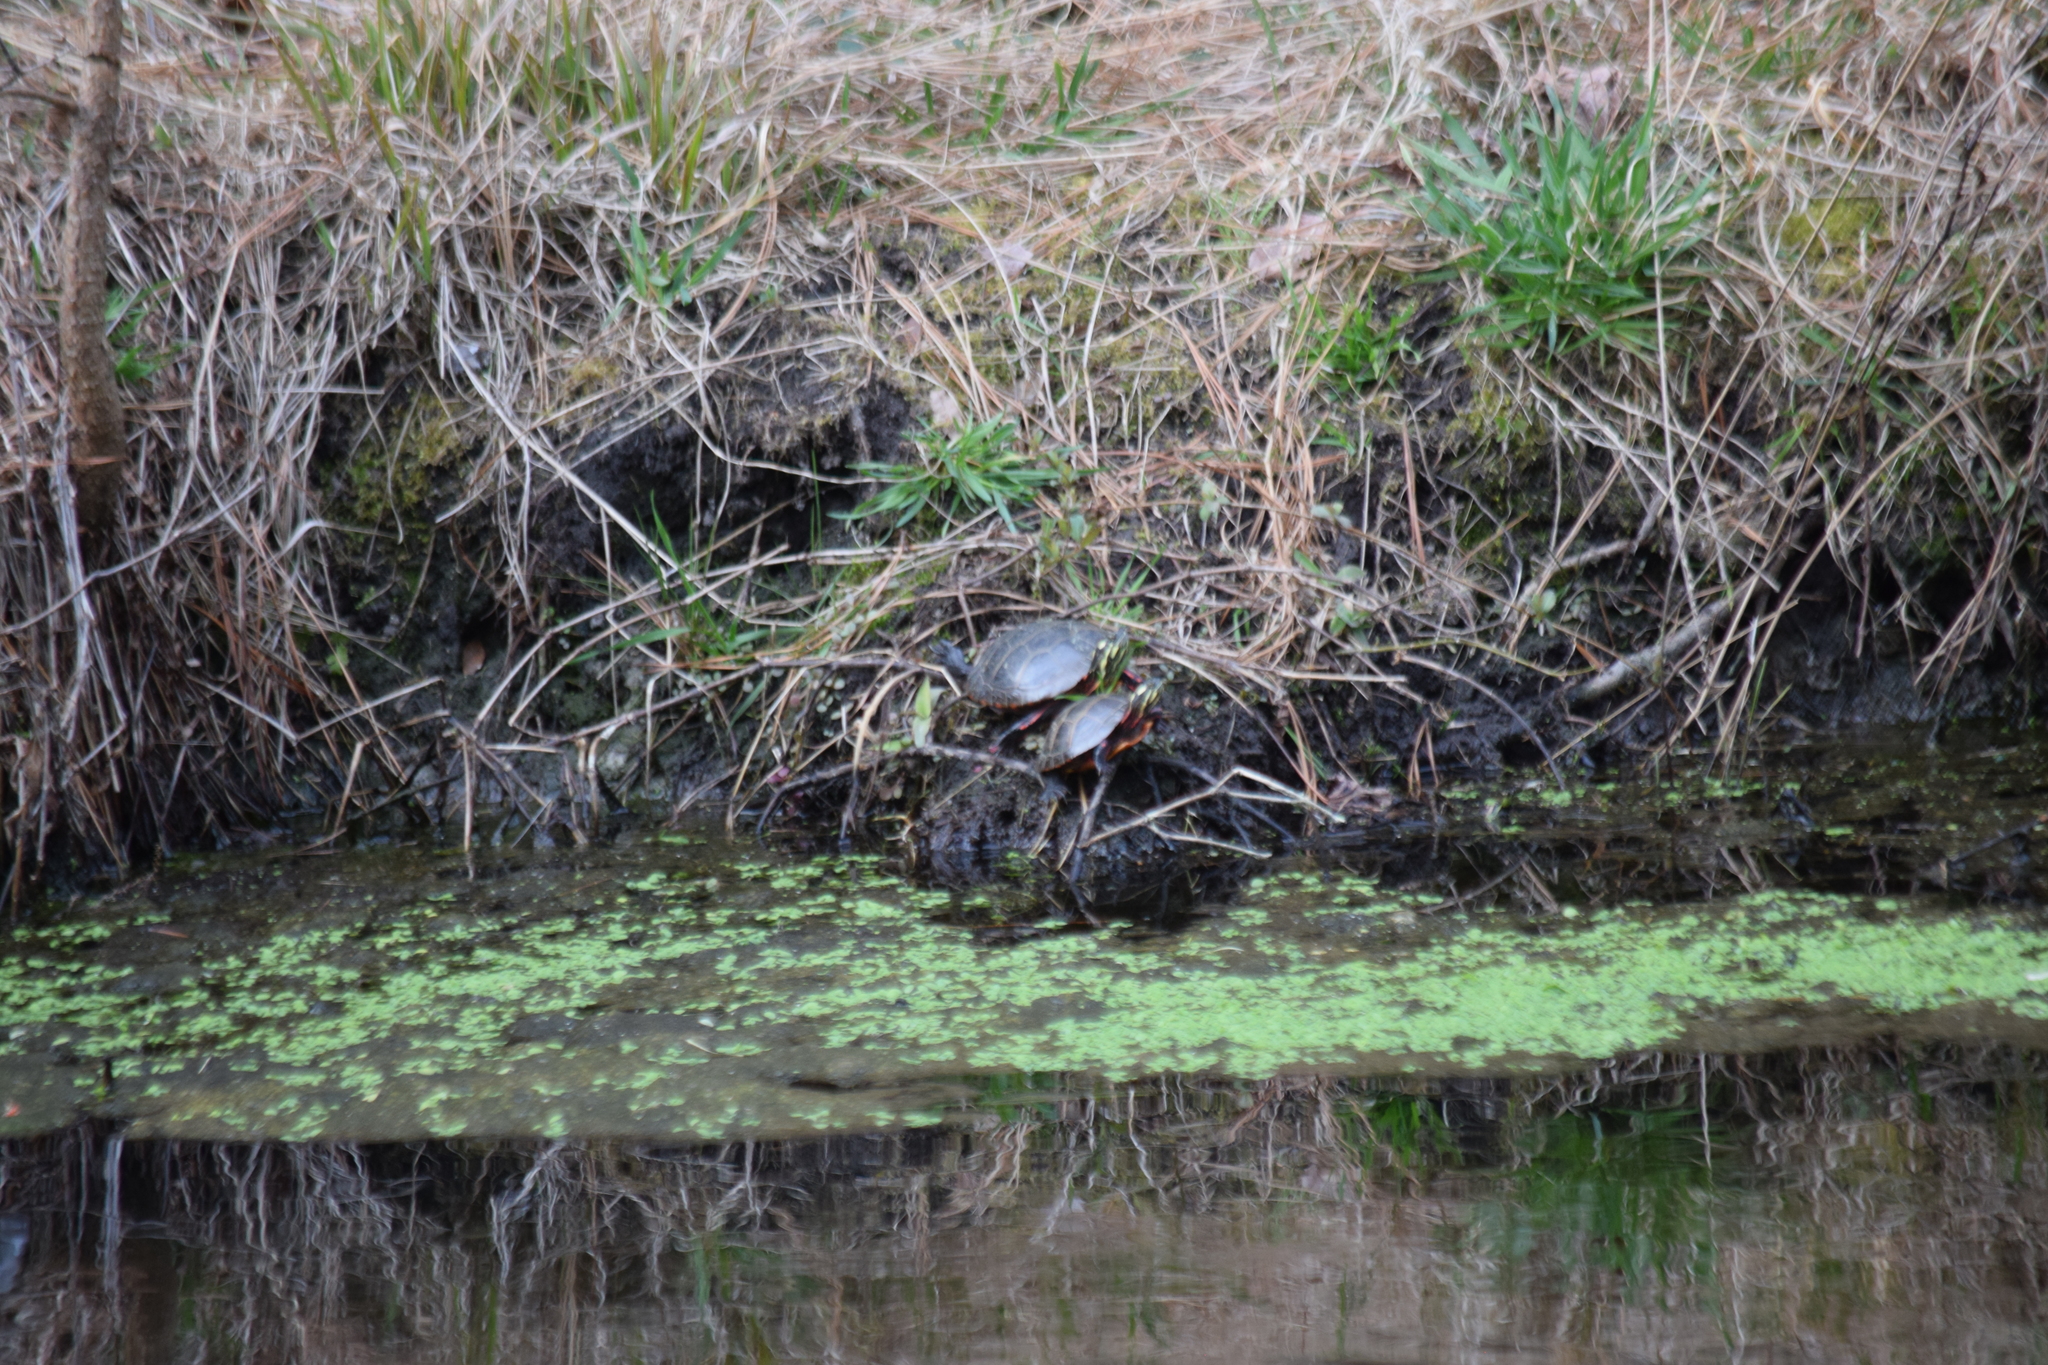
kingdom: Animalia
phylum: Chordata
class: Testudines
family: Emydidae
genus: Chrysemys
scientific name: Chrysemys picta
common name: Painted turtle
